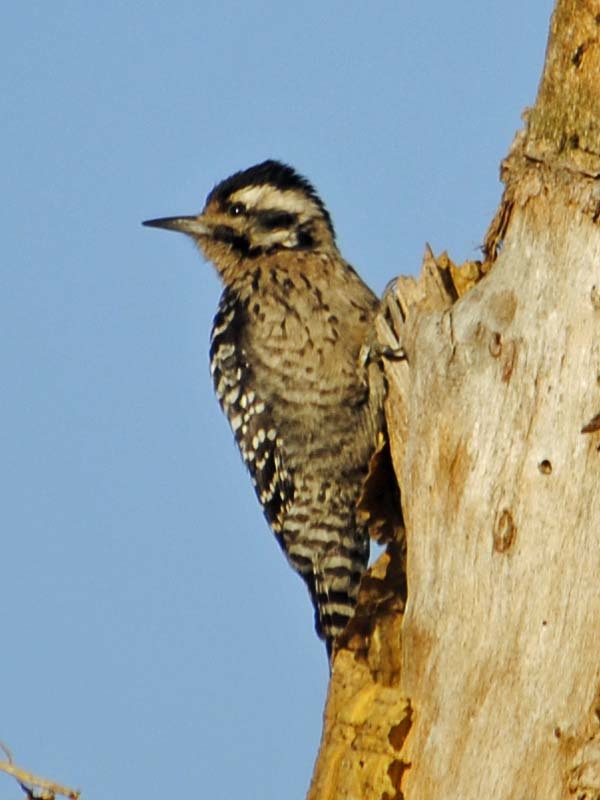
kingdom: Animalia
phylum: Chordata
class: Aves
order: Piciformes
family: Picidae
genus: Dryobates
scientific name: Dryobates scalaris
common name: Ladder-backed woodpecker
